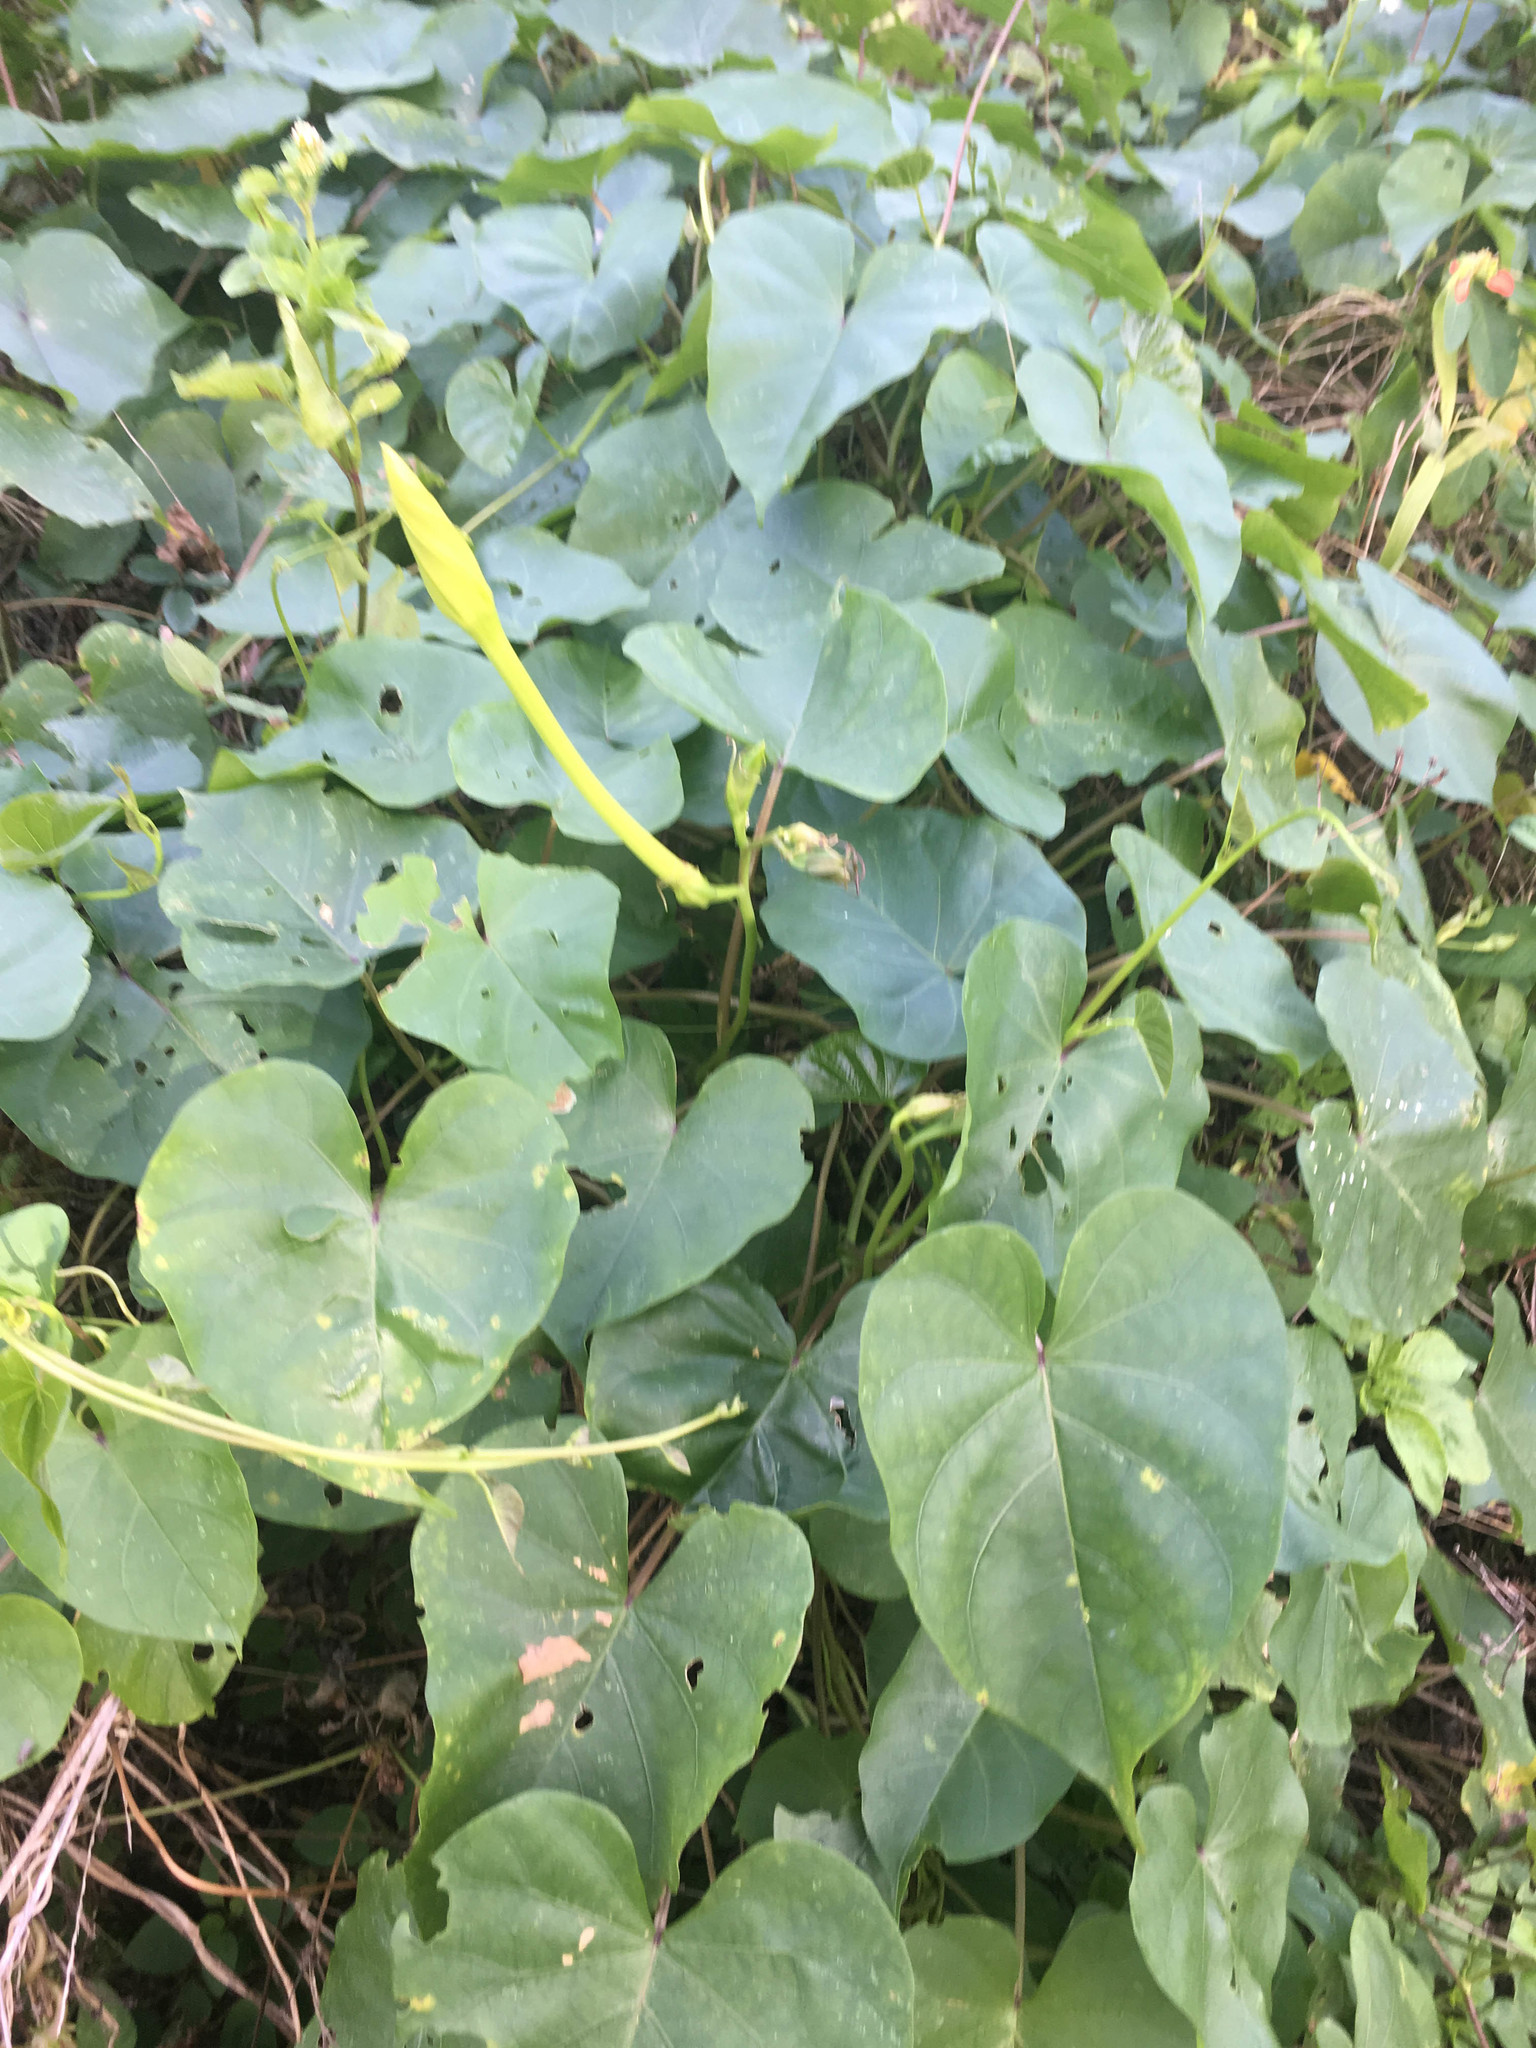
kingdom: Plantae
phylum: Tracheophyta
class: Magnoliopsida
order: Solanales
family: Convolvulaceae
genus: Ipomoea
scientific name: Ipomoea alba
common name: Moonflower
